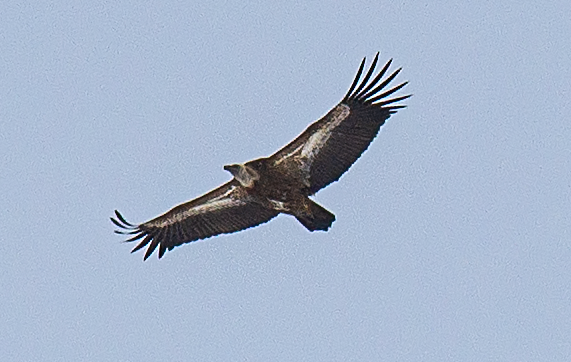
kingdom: Animalia
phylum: Chordata
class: Aves
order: Accipitriformes
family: Accipitridae
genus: Gyps
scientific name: Gyps fulvus
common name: Griffon vulture
